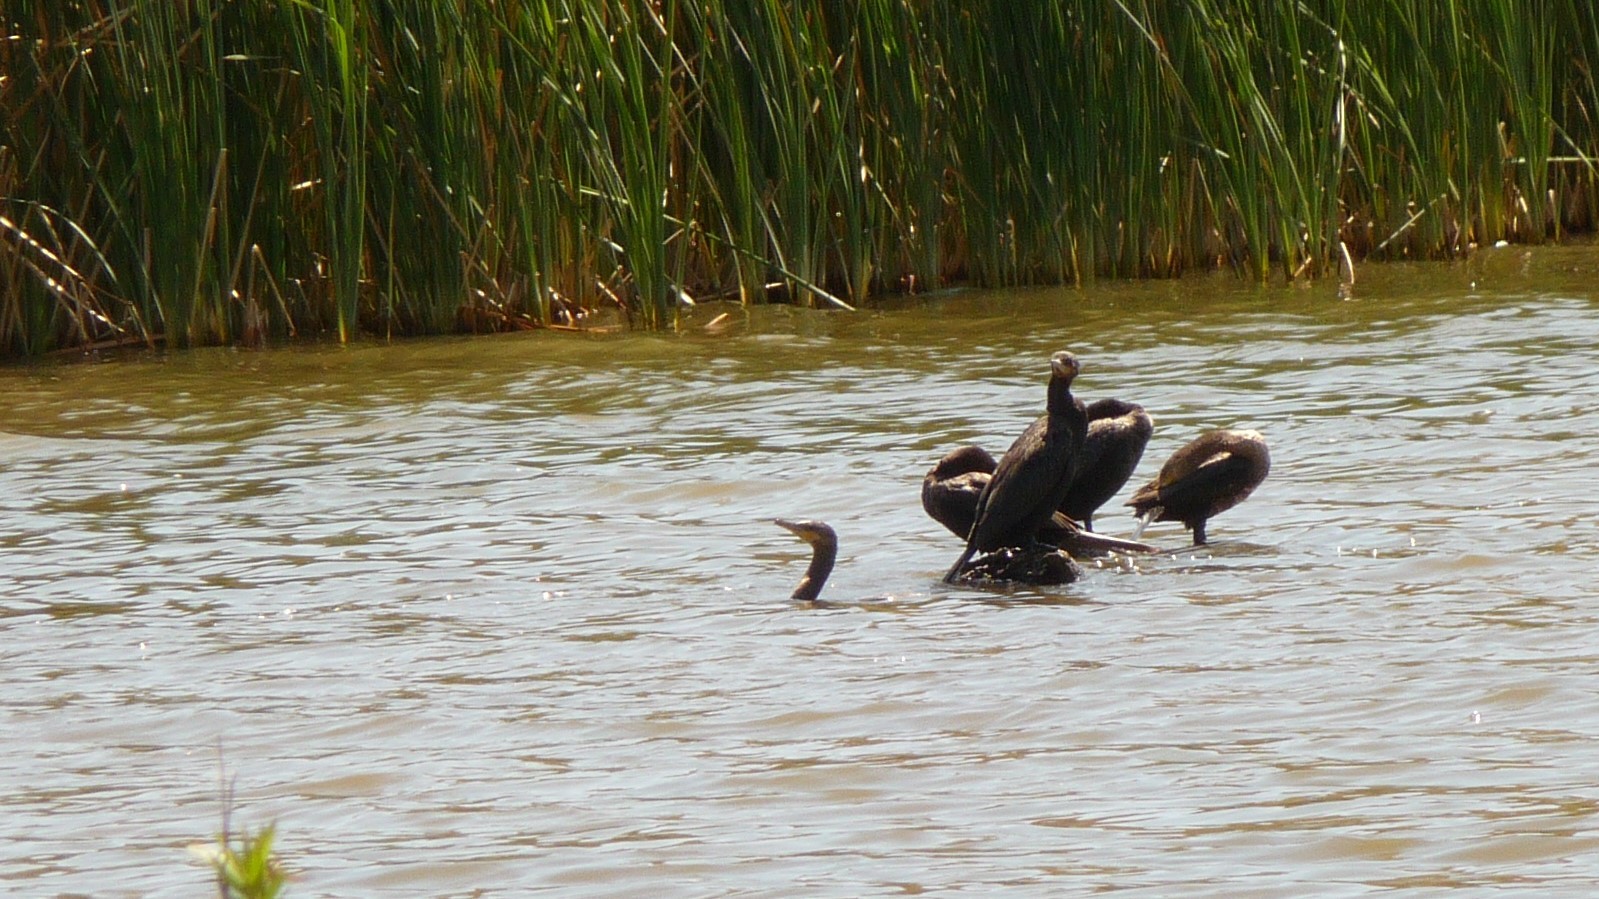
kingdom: Animalia
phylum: Chordata
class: Aves
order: Suliformes
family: Phalacrocoracidae
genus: Phalacrocorax
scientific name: Phalacrocorax brasilianus
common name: Neotropic cormorant
